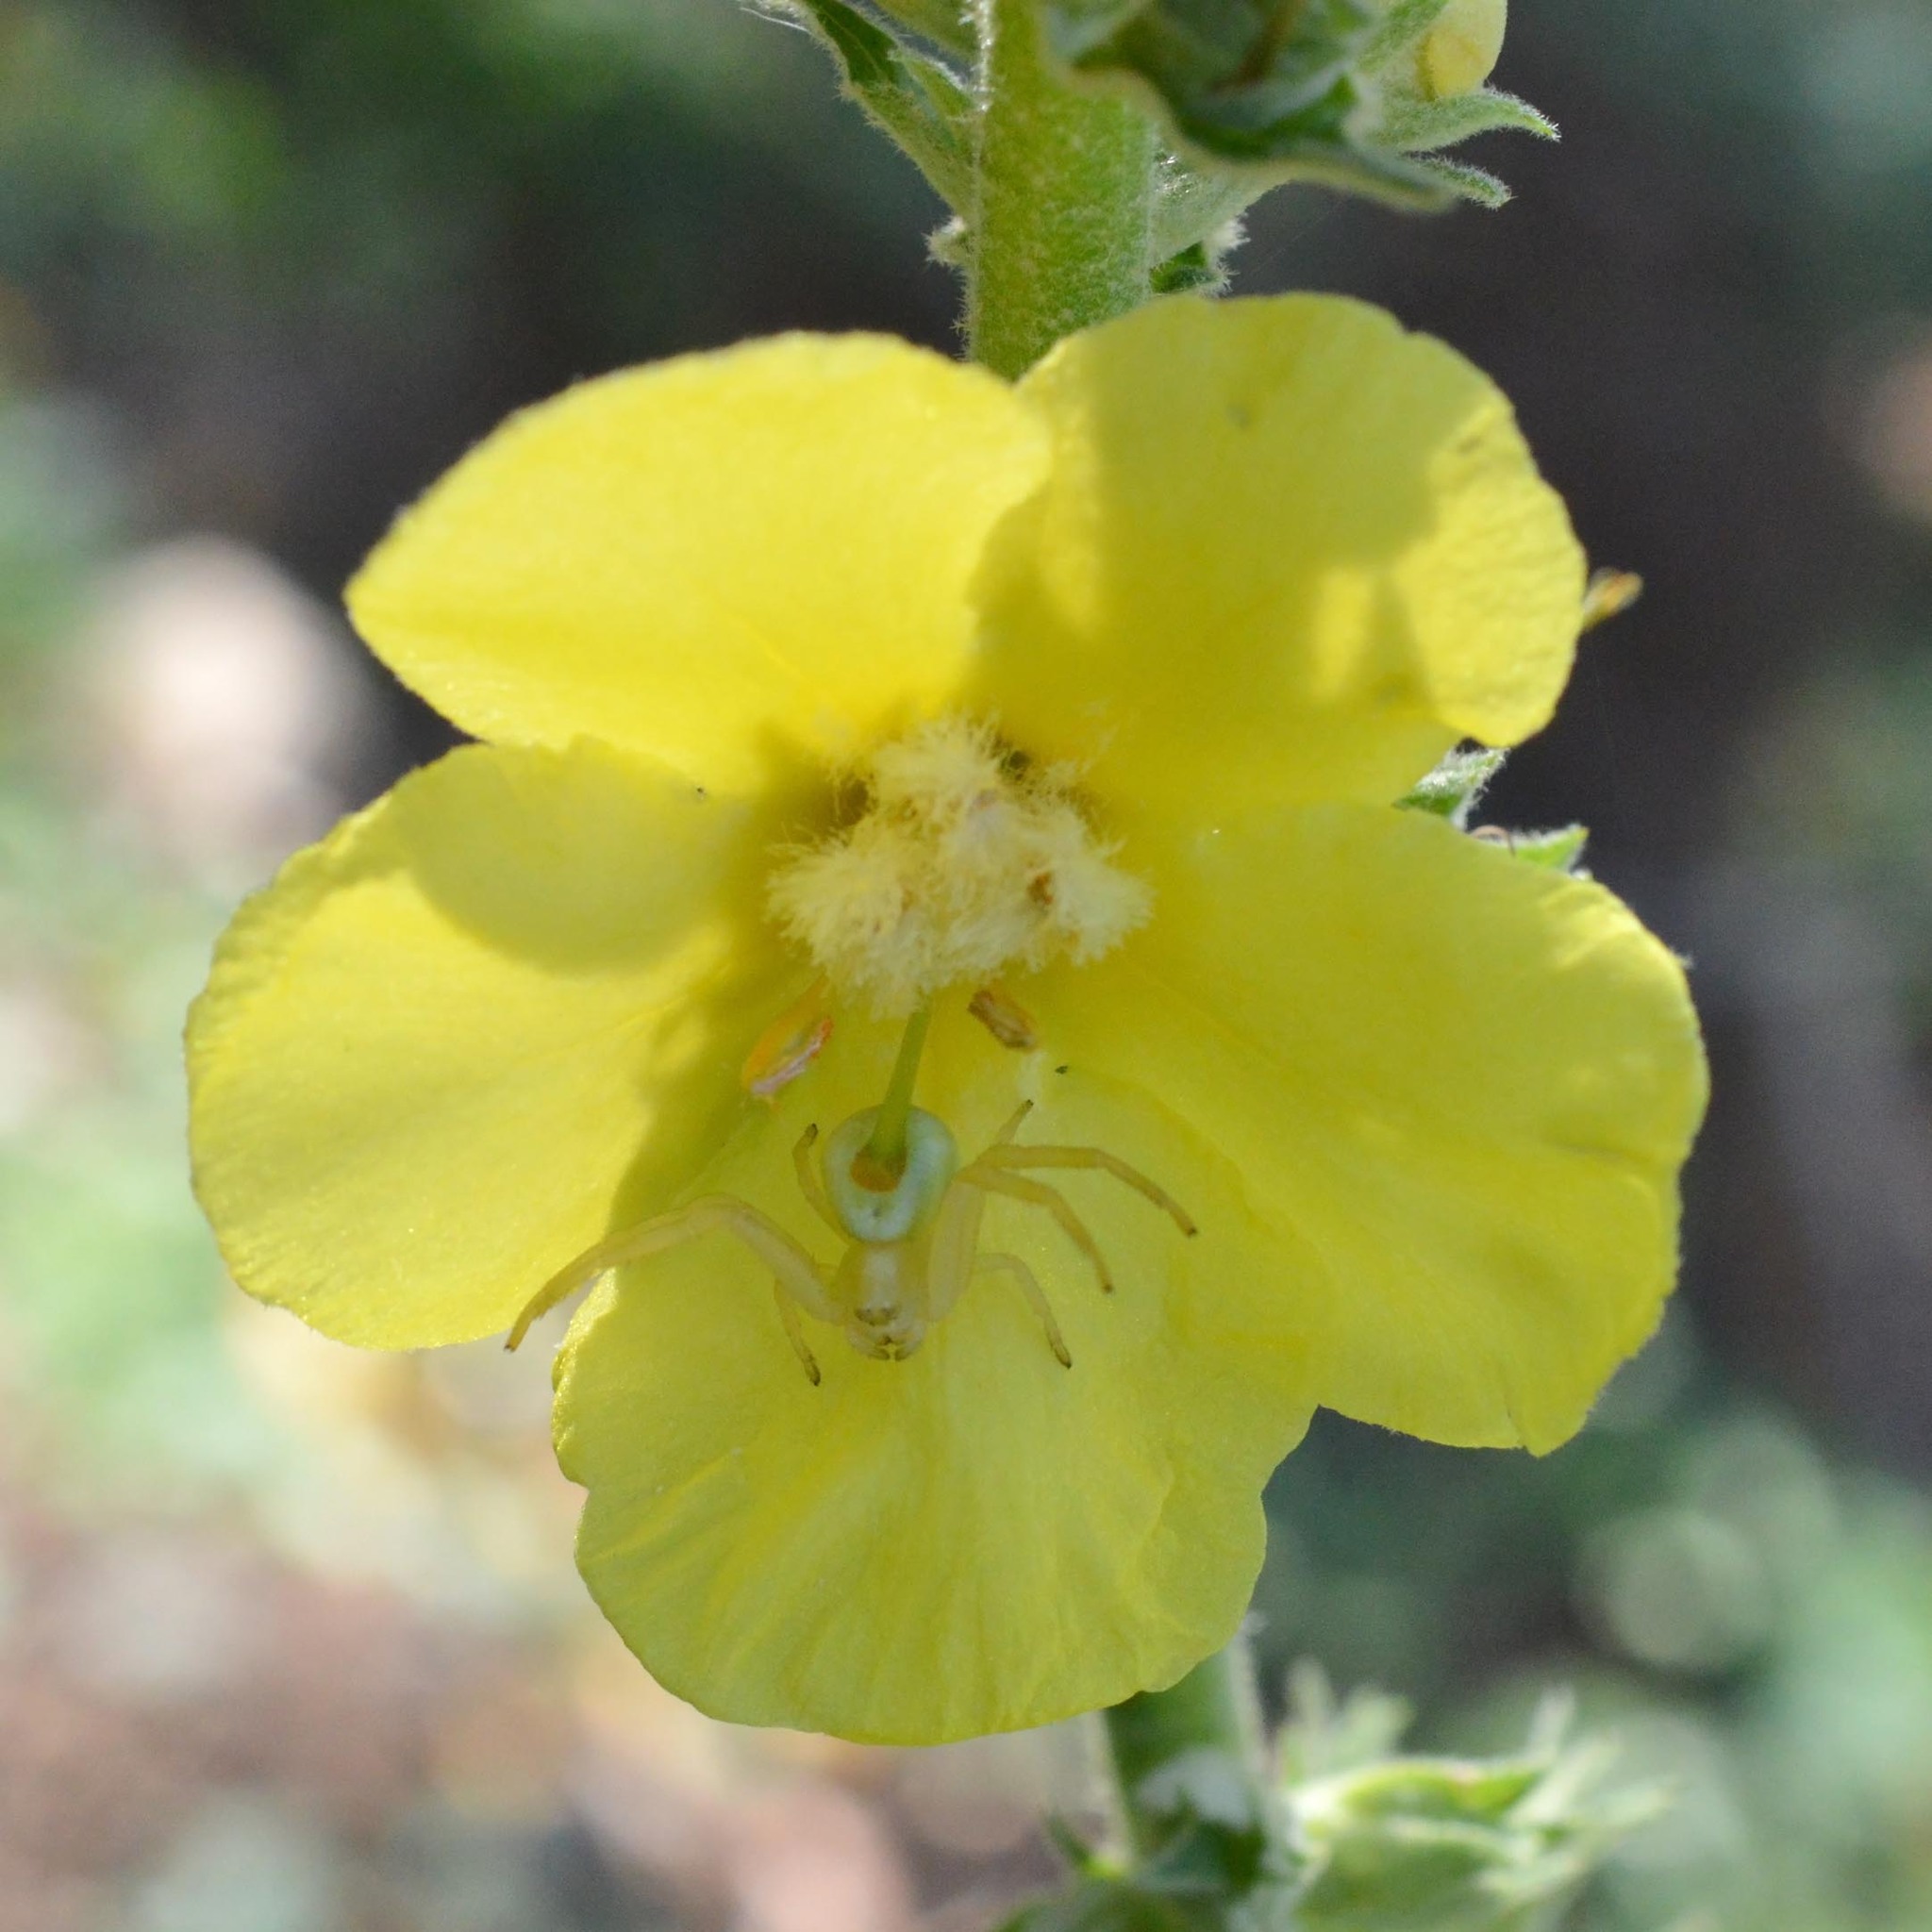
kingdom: Animalia
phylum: Arthropoda
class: Arachnida
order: Araneae
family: Thomisidae
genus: Misumena
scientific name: Misumena vatia
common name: Goldenrod crab spider
